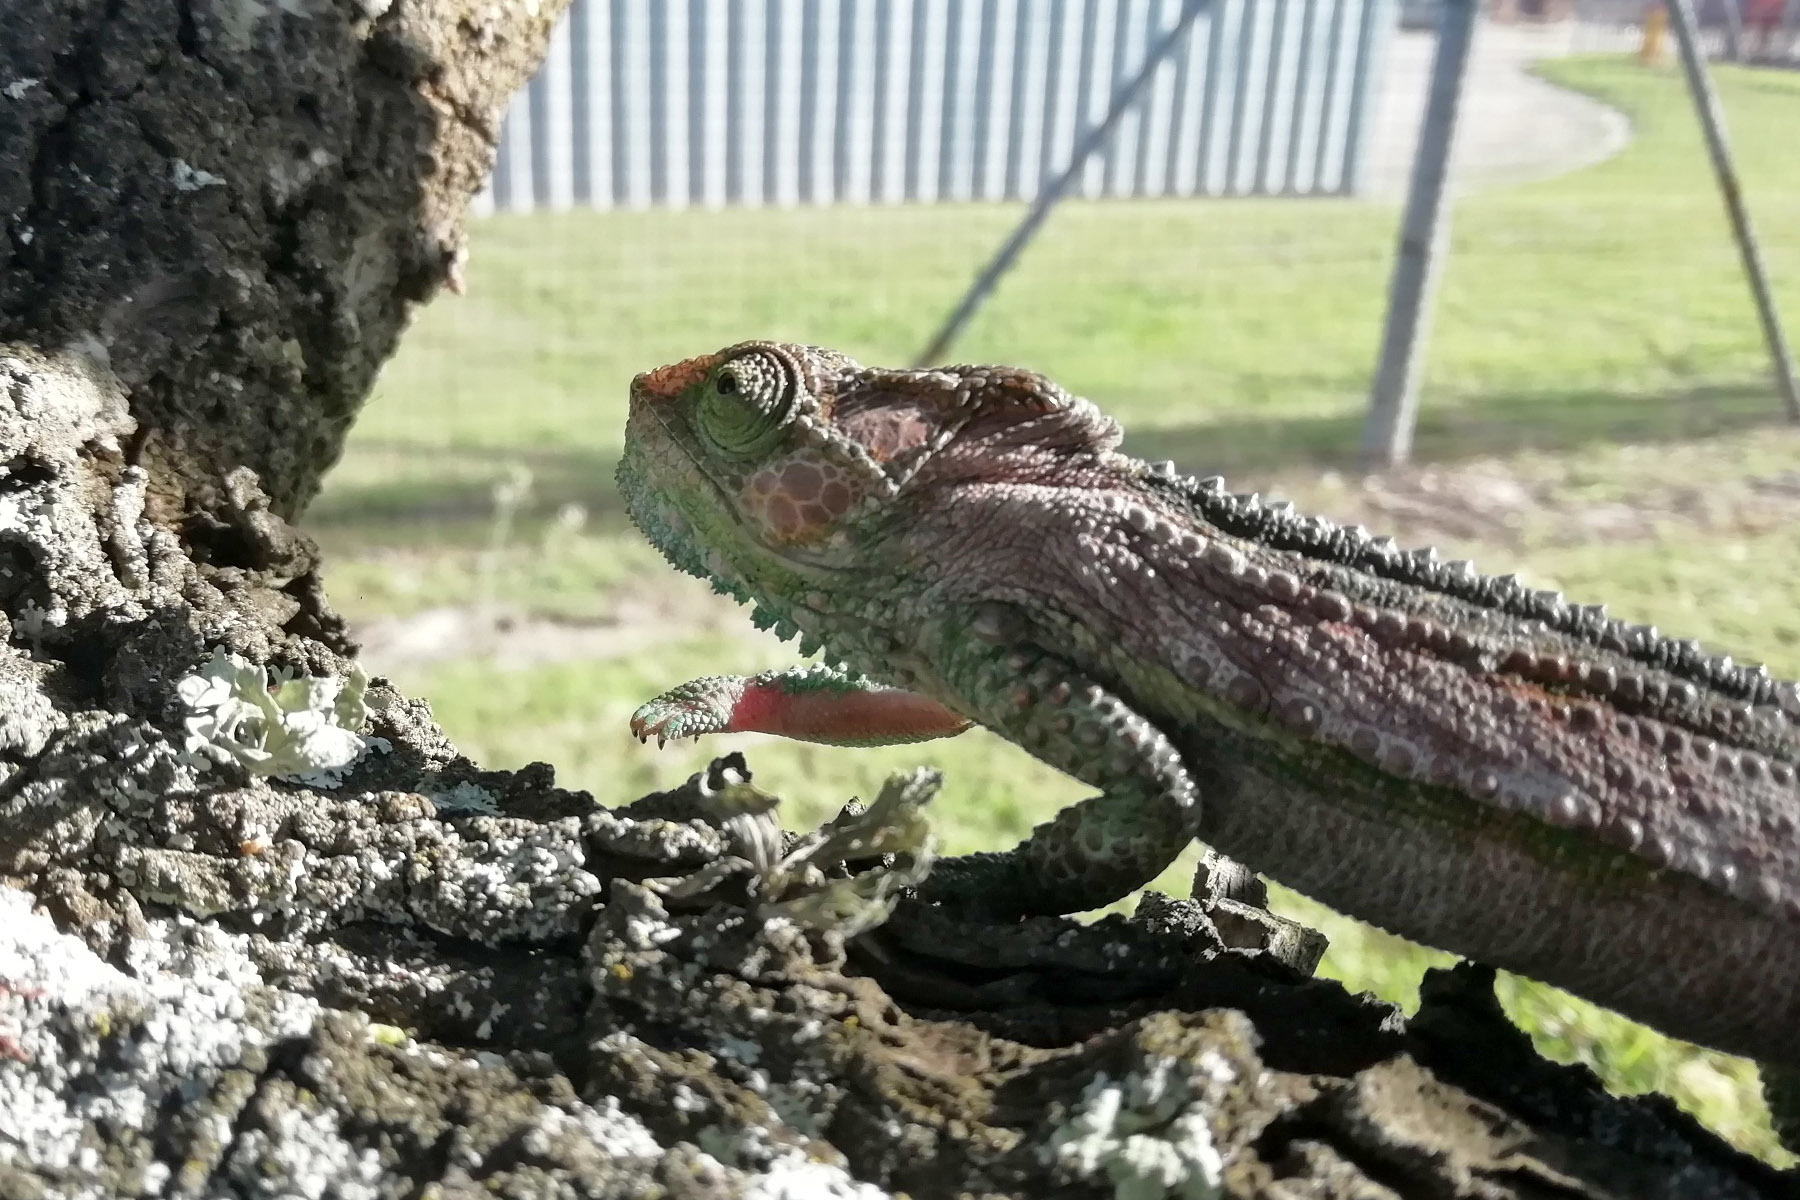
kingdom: Animalia
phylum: Chordata
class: Squamata
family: Chamaeleonidae
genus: Bradypodion
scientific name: Bradypodion damaranum
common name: Knysna dwarf chameleon
